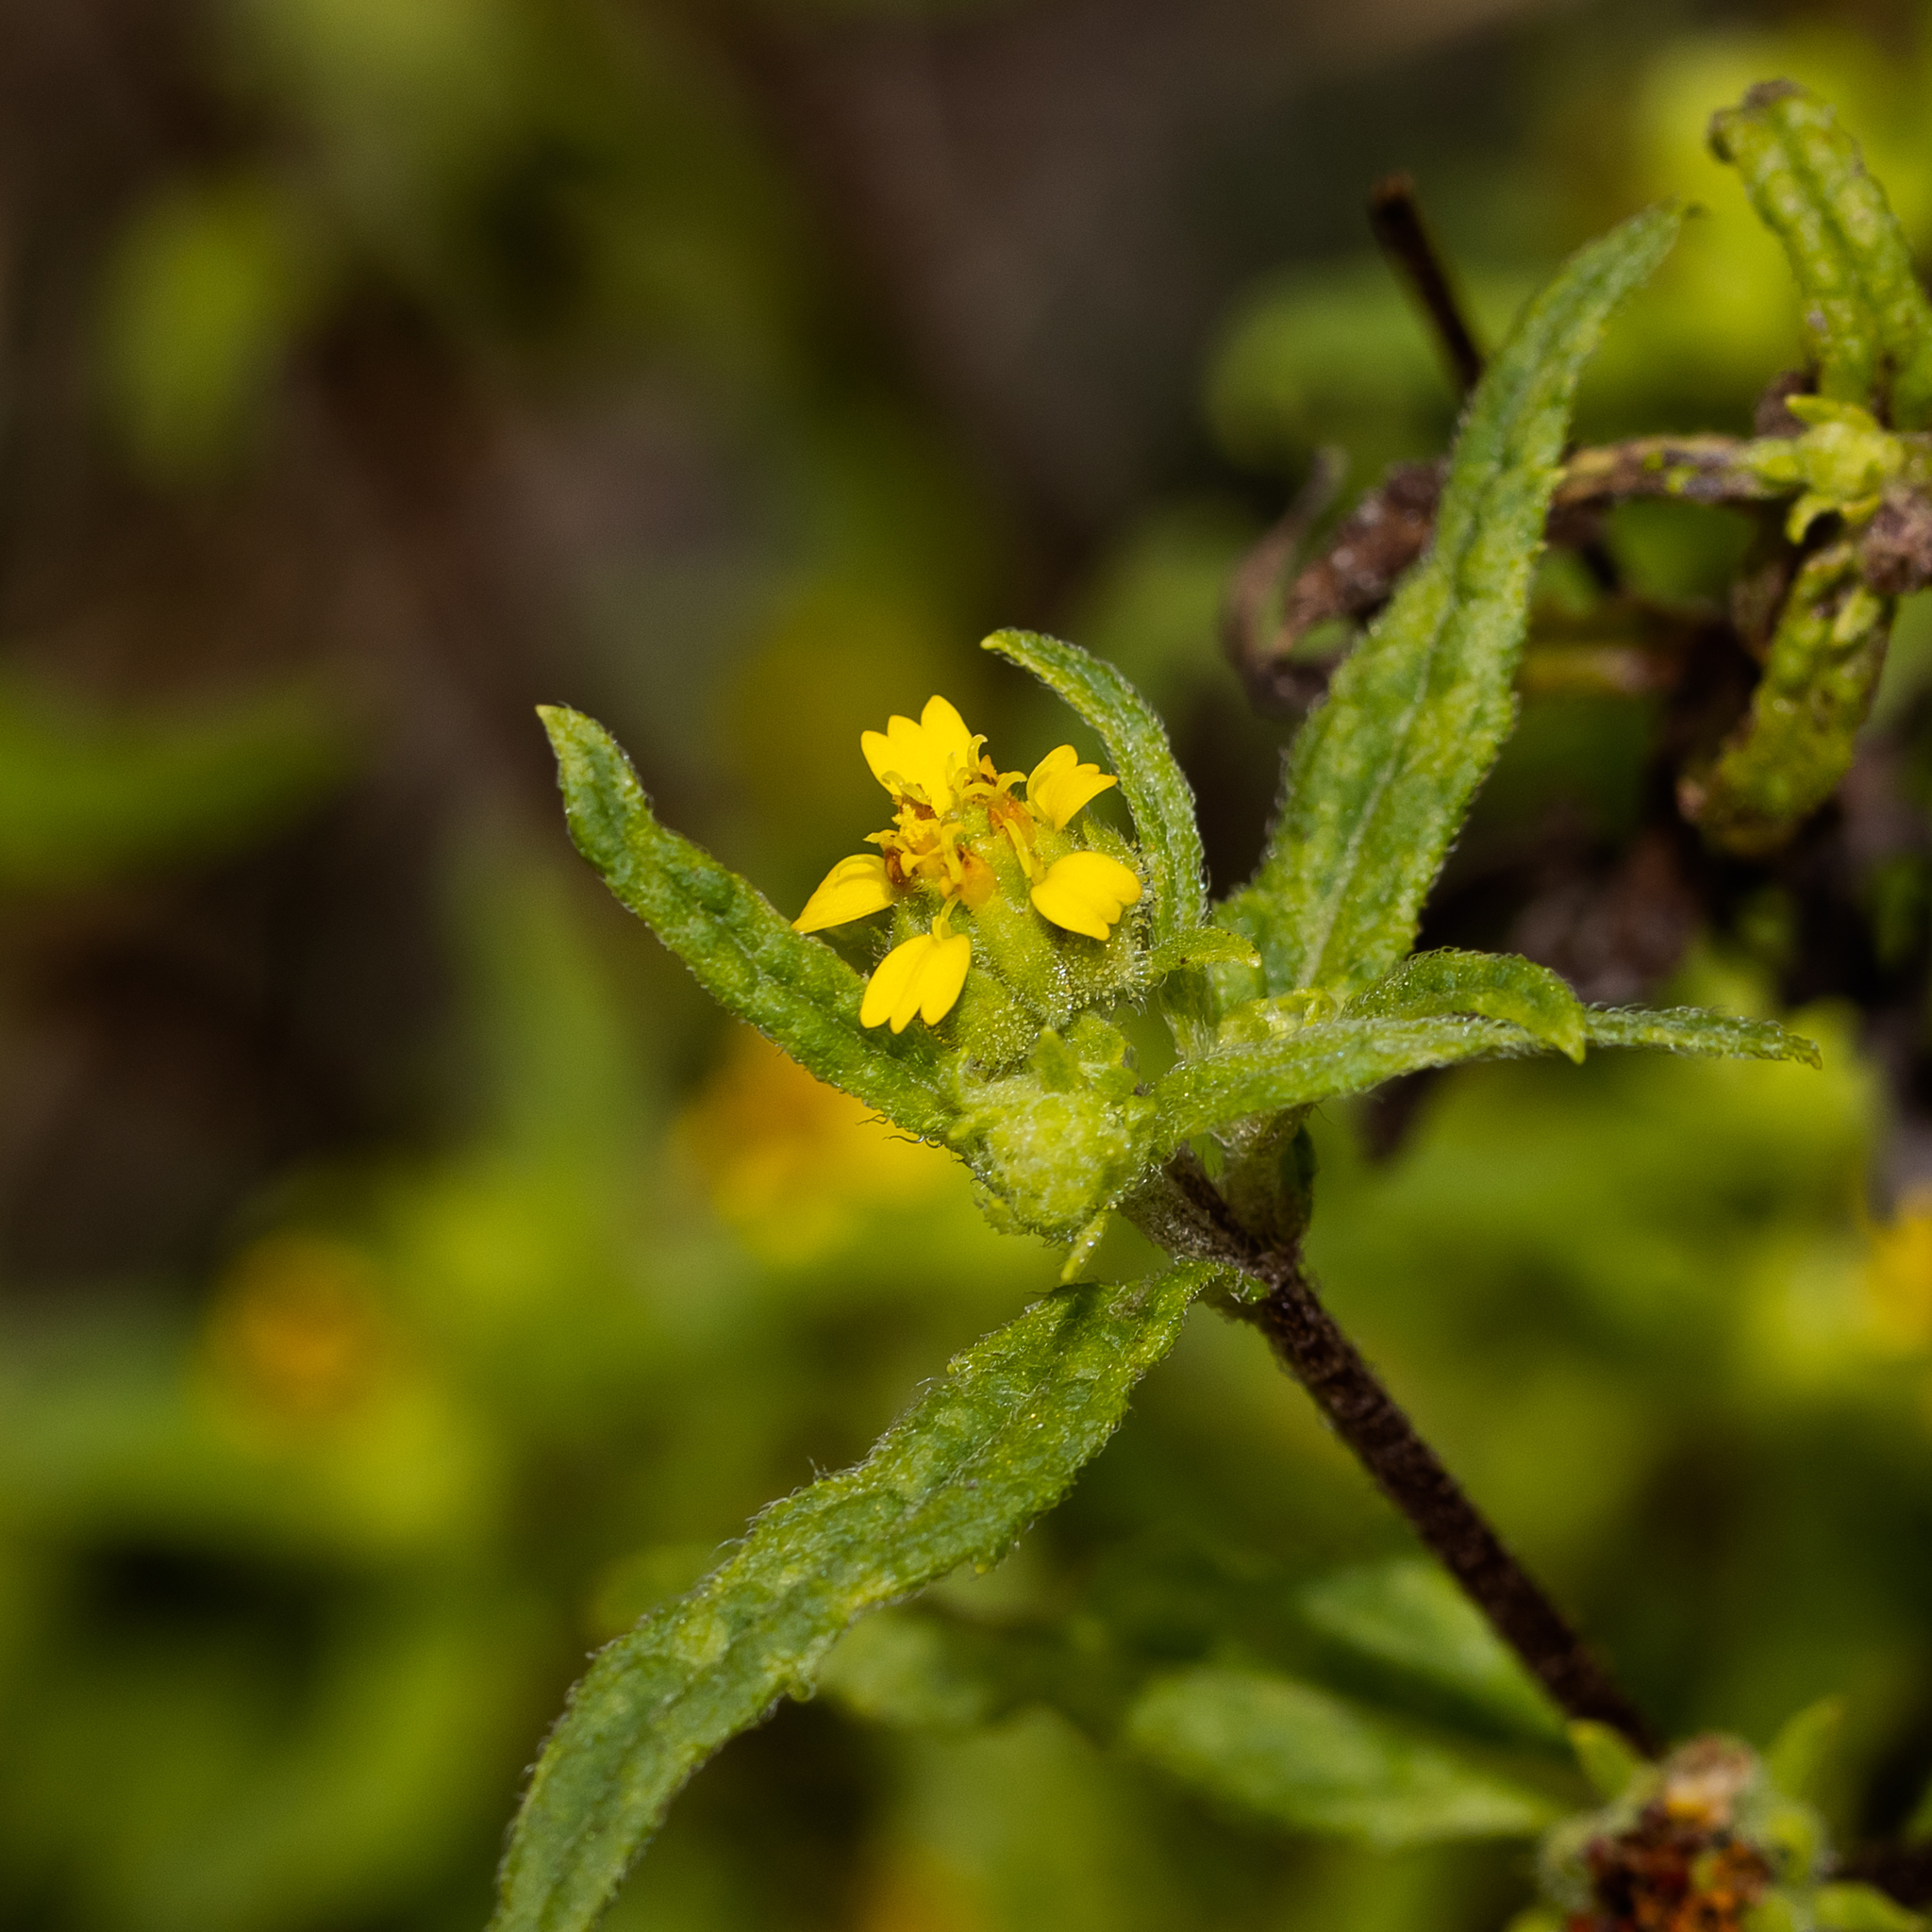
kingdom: Plantae
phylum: Tracheophyta
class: Magnoliopsida
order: Asterales
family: Asteraceae
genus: Sigesbeckia
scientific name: Sigesbeckia australiensis
